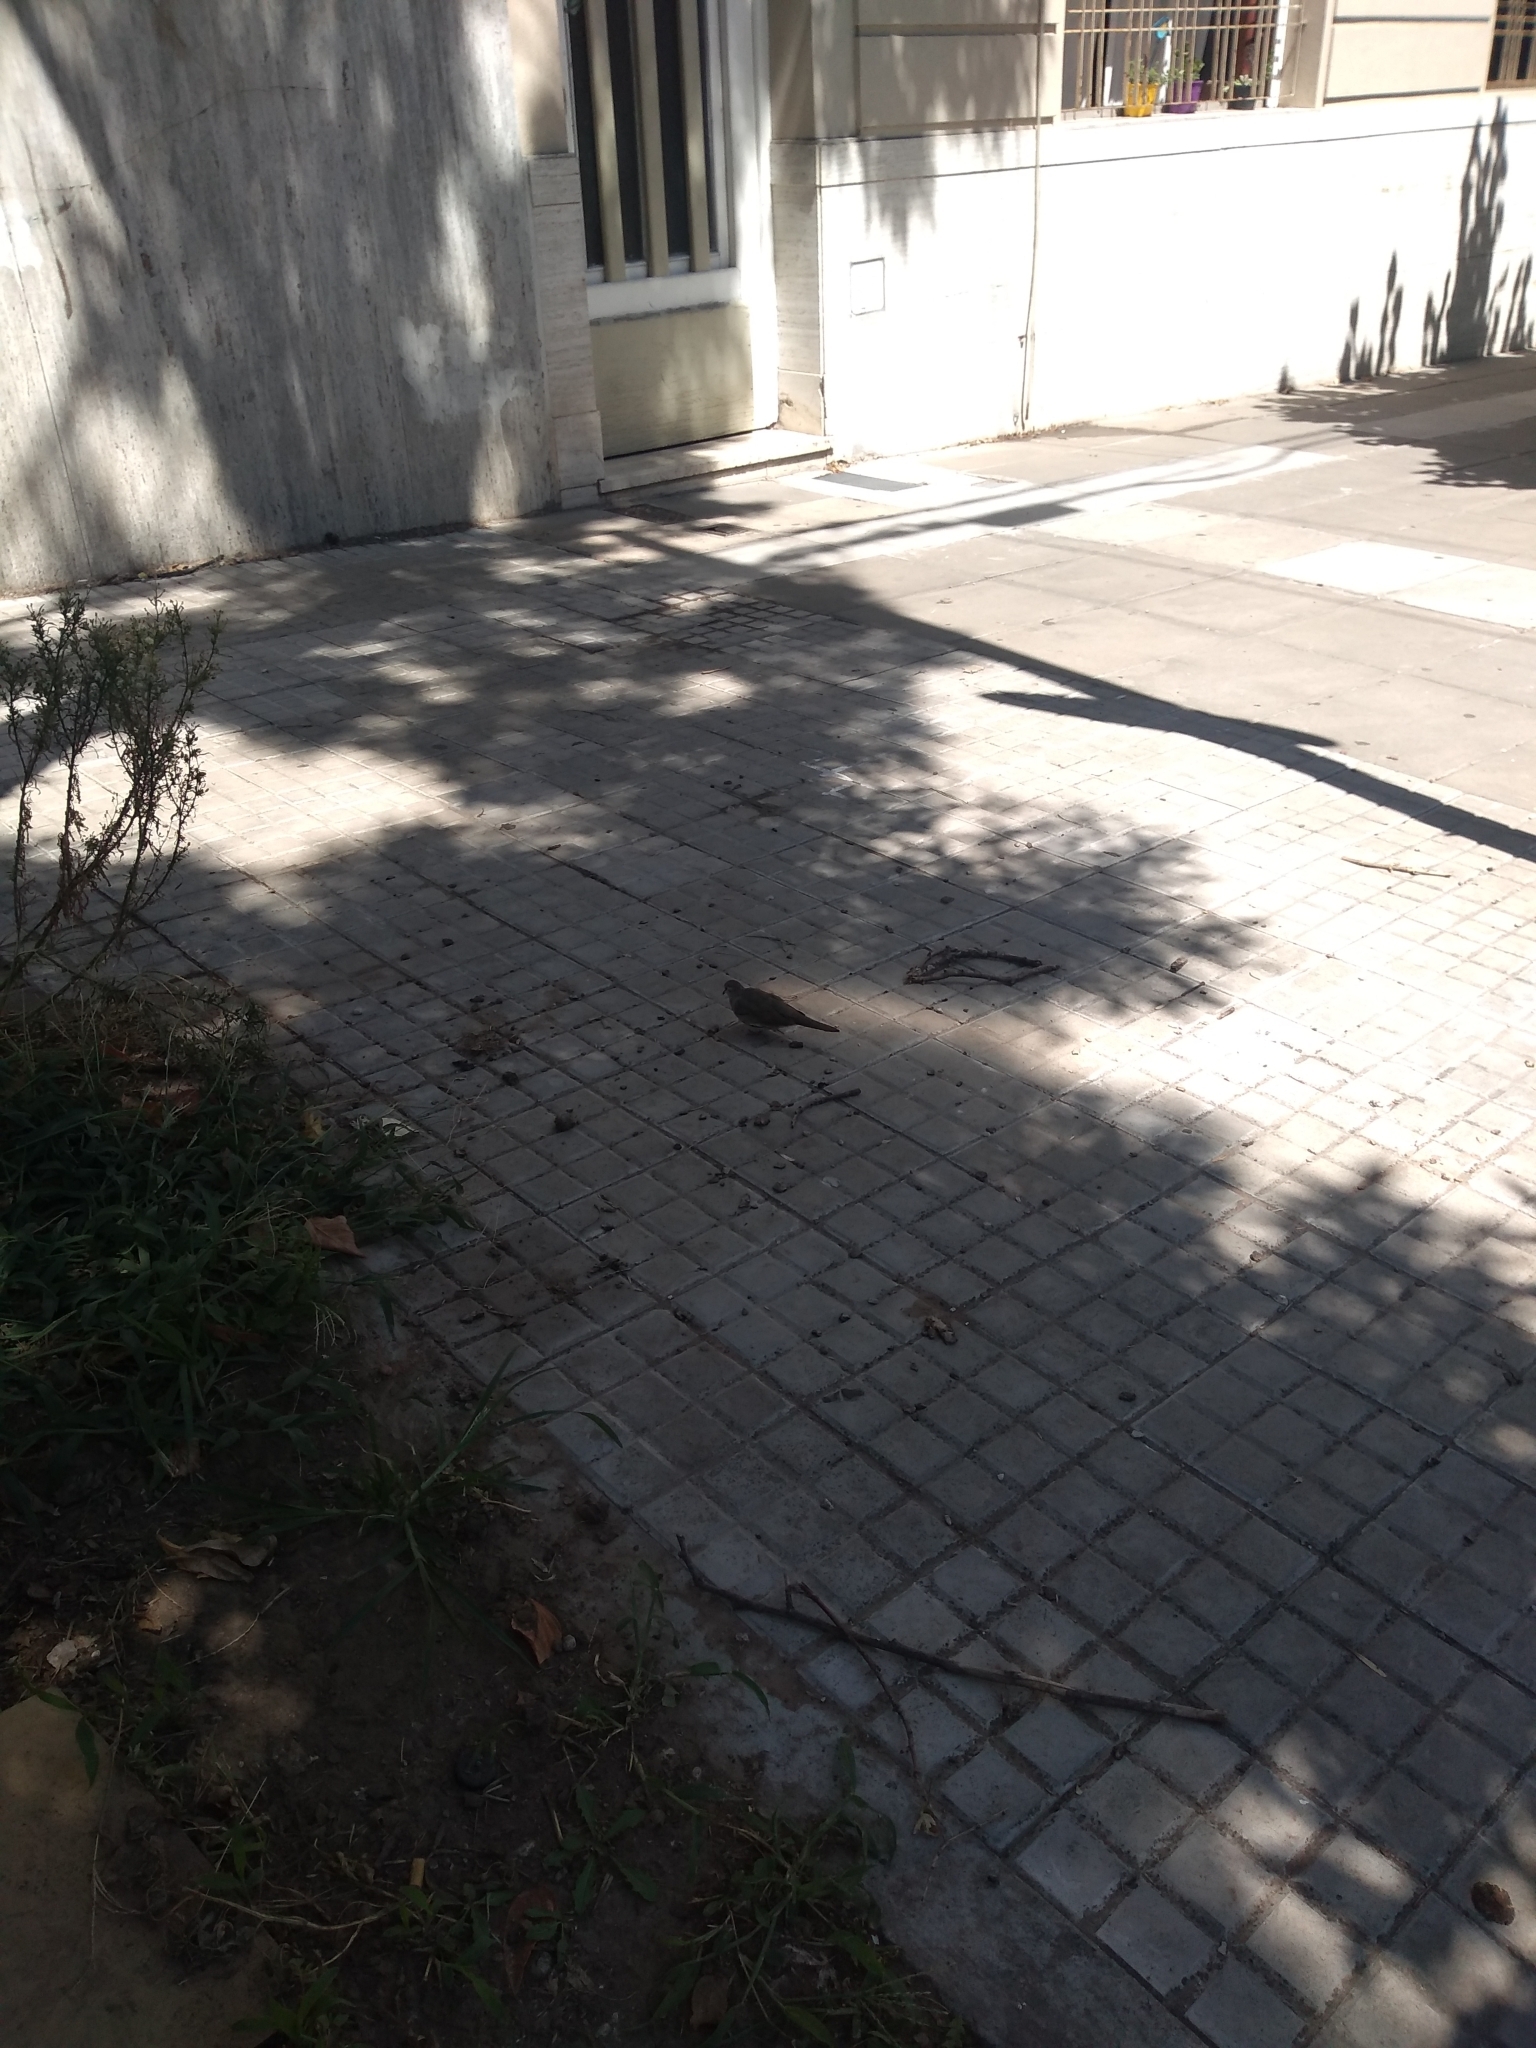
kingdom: Animalia
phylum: Chordata
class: Aves
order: Columbiformes
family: Columbidae
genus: Columbina
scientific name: Columbina picui
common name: Picui ground dove
